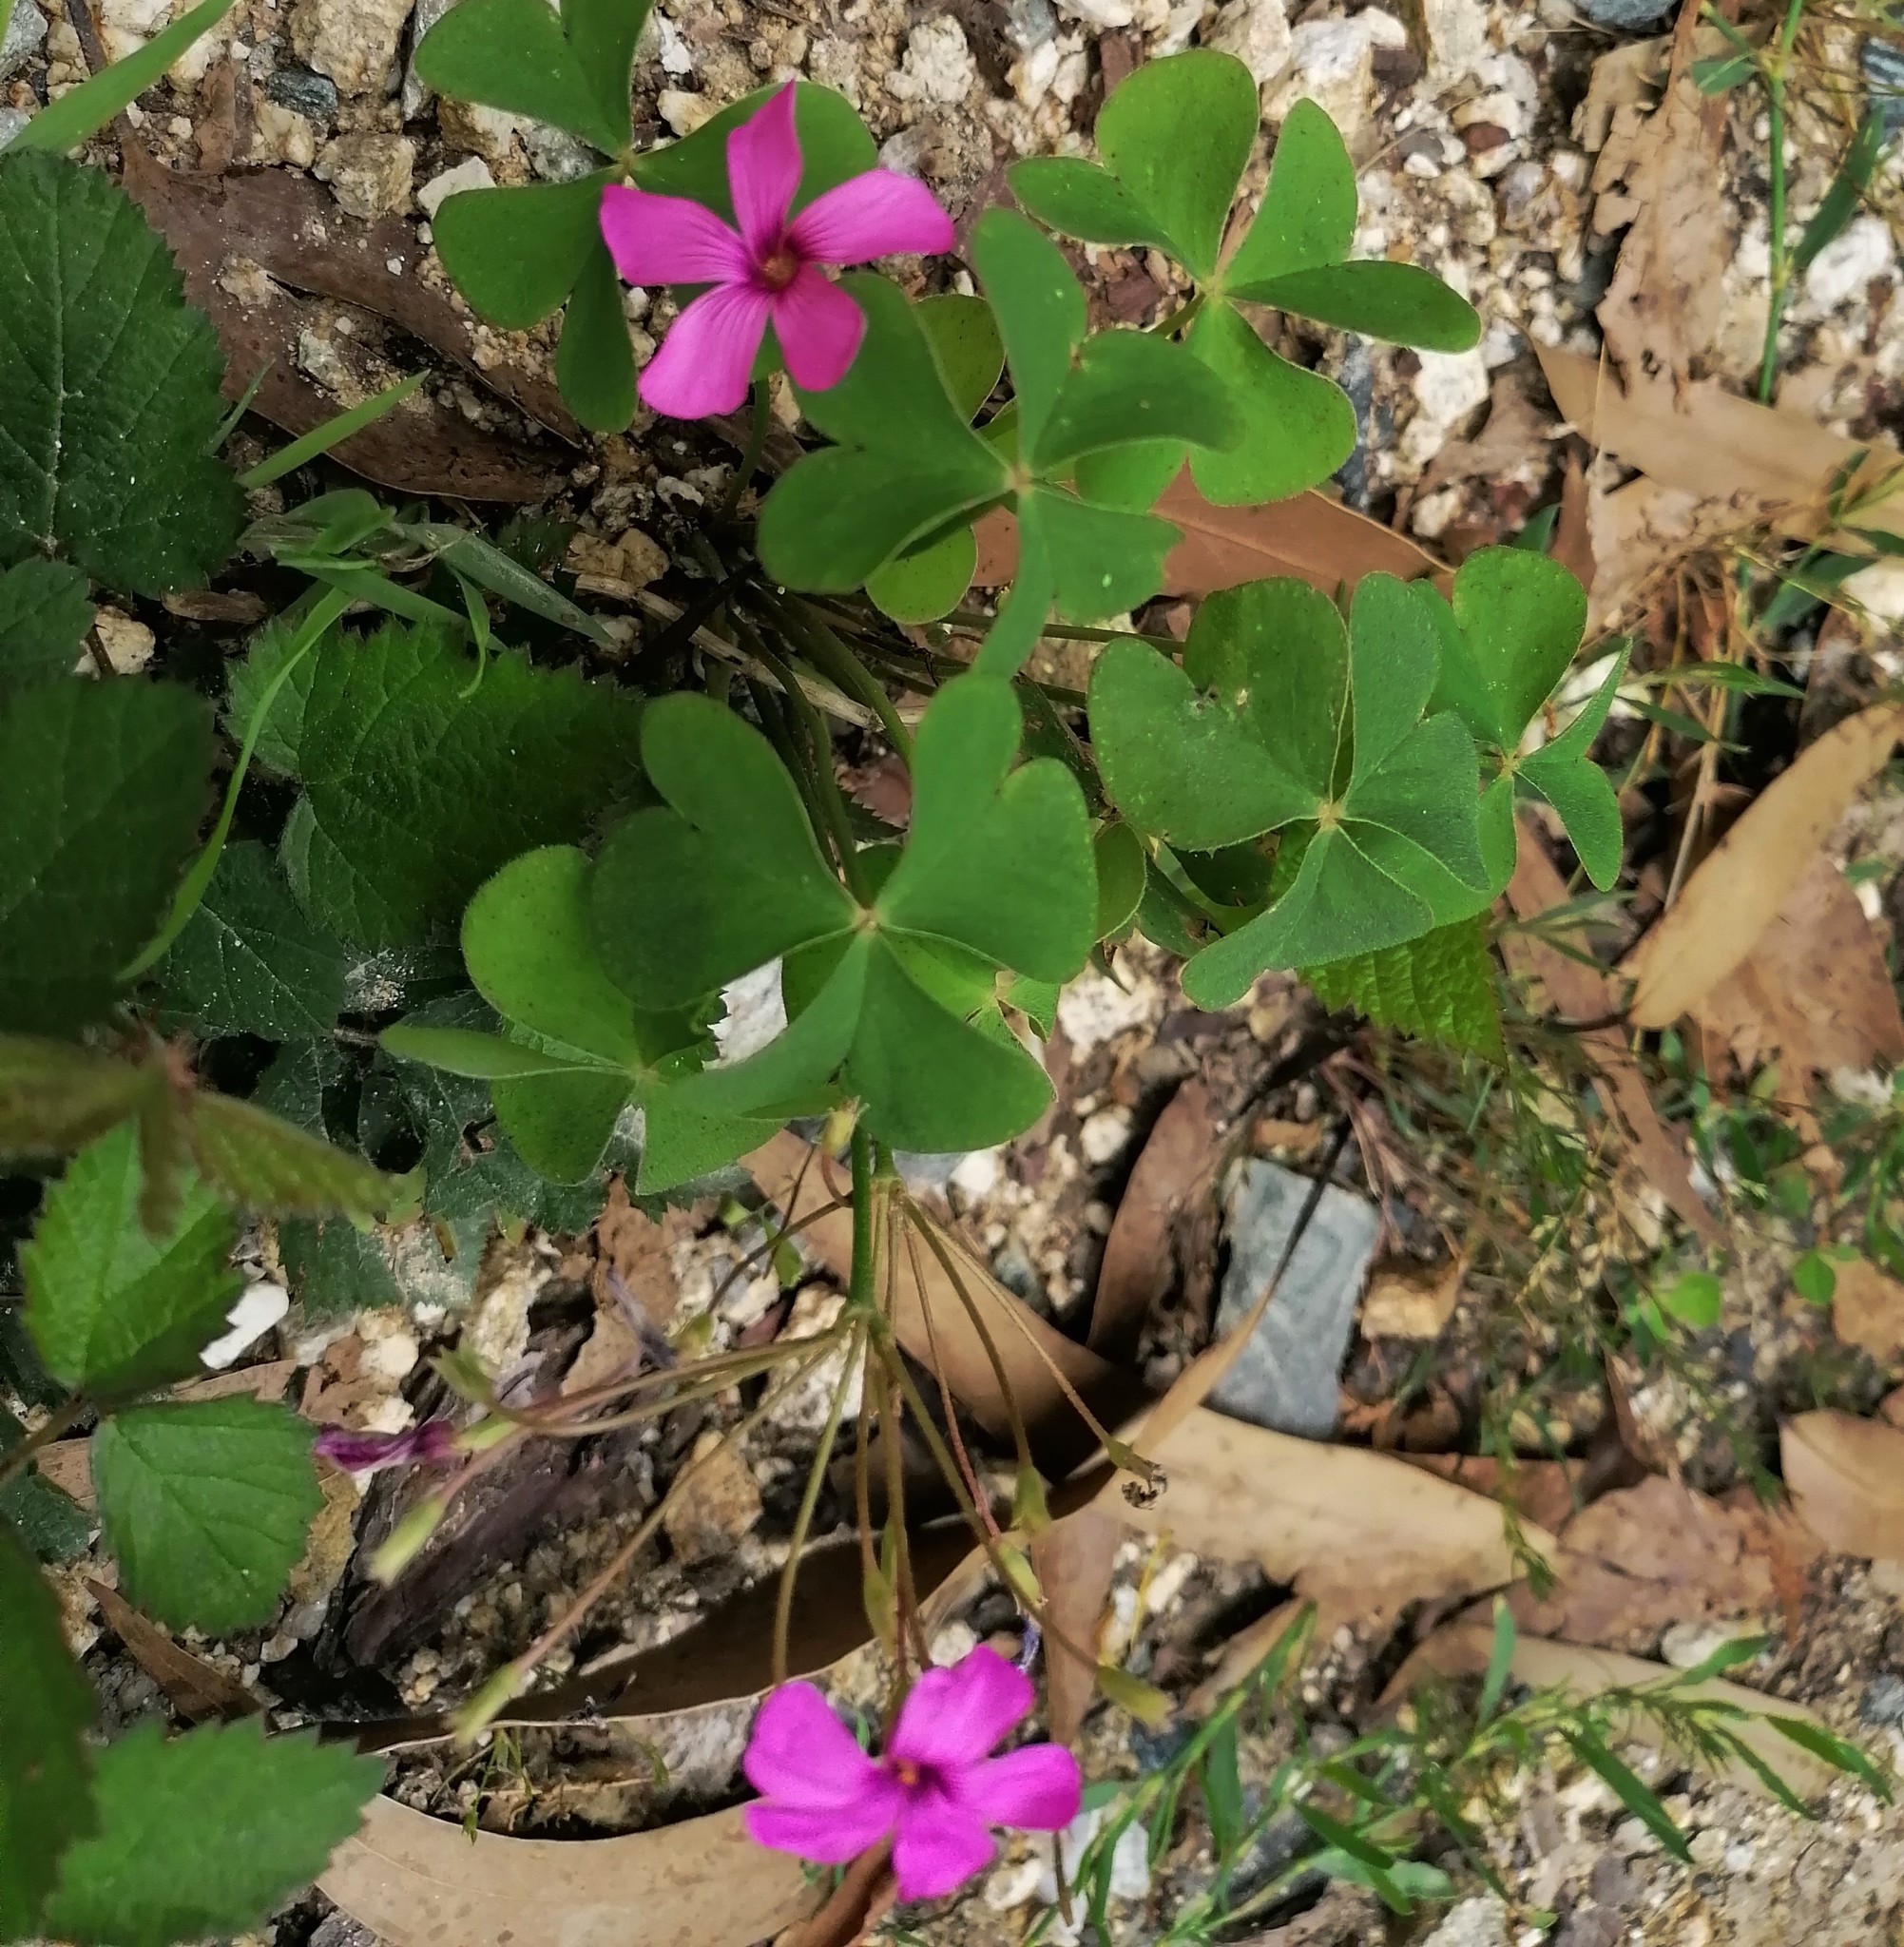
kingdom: Plantae
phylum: Tracheophyta
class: Magnoliopsida
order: Oxalidales
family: Oxalidaceae
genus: Oxalis
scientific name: Oxalis articulata
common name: Pink-sorrel
